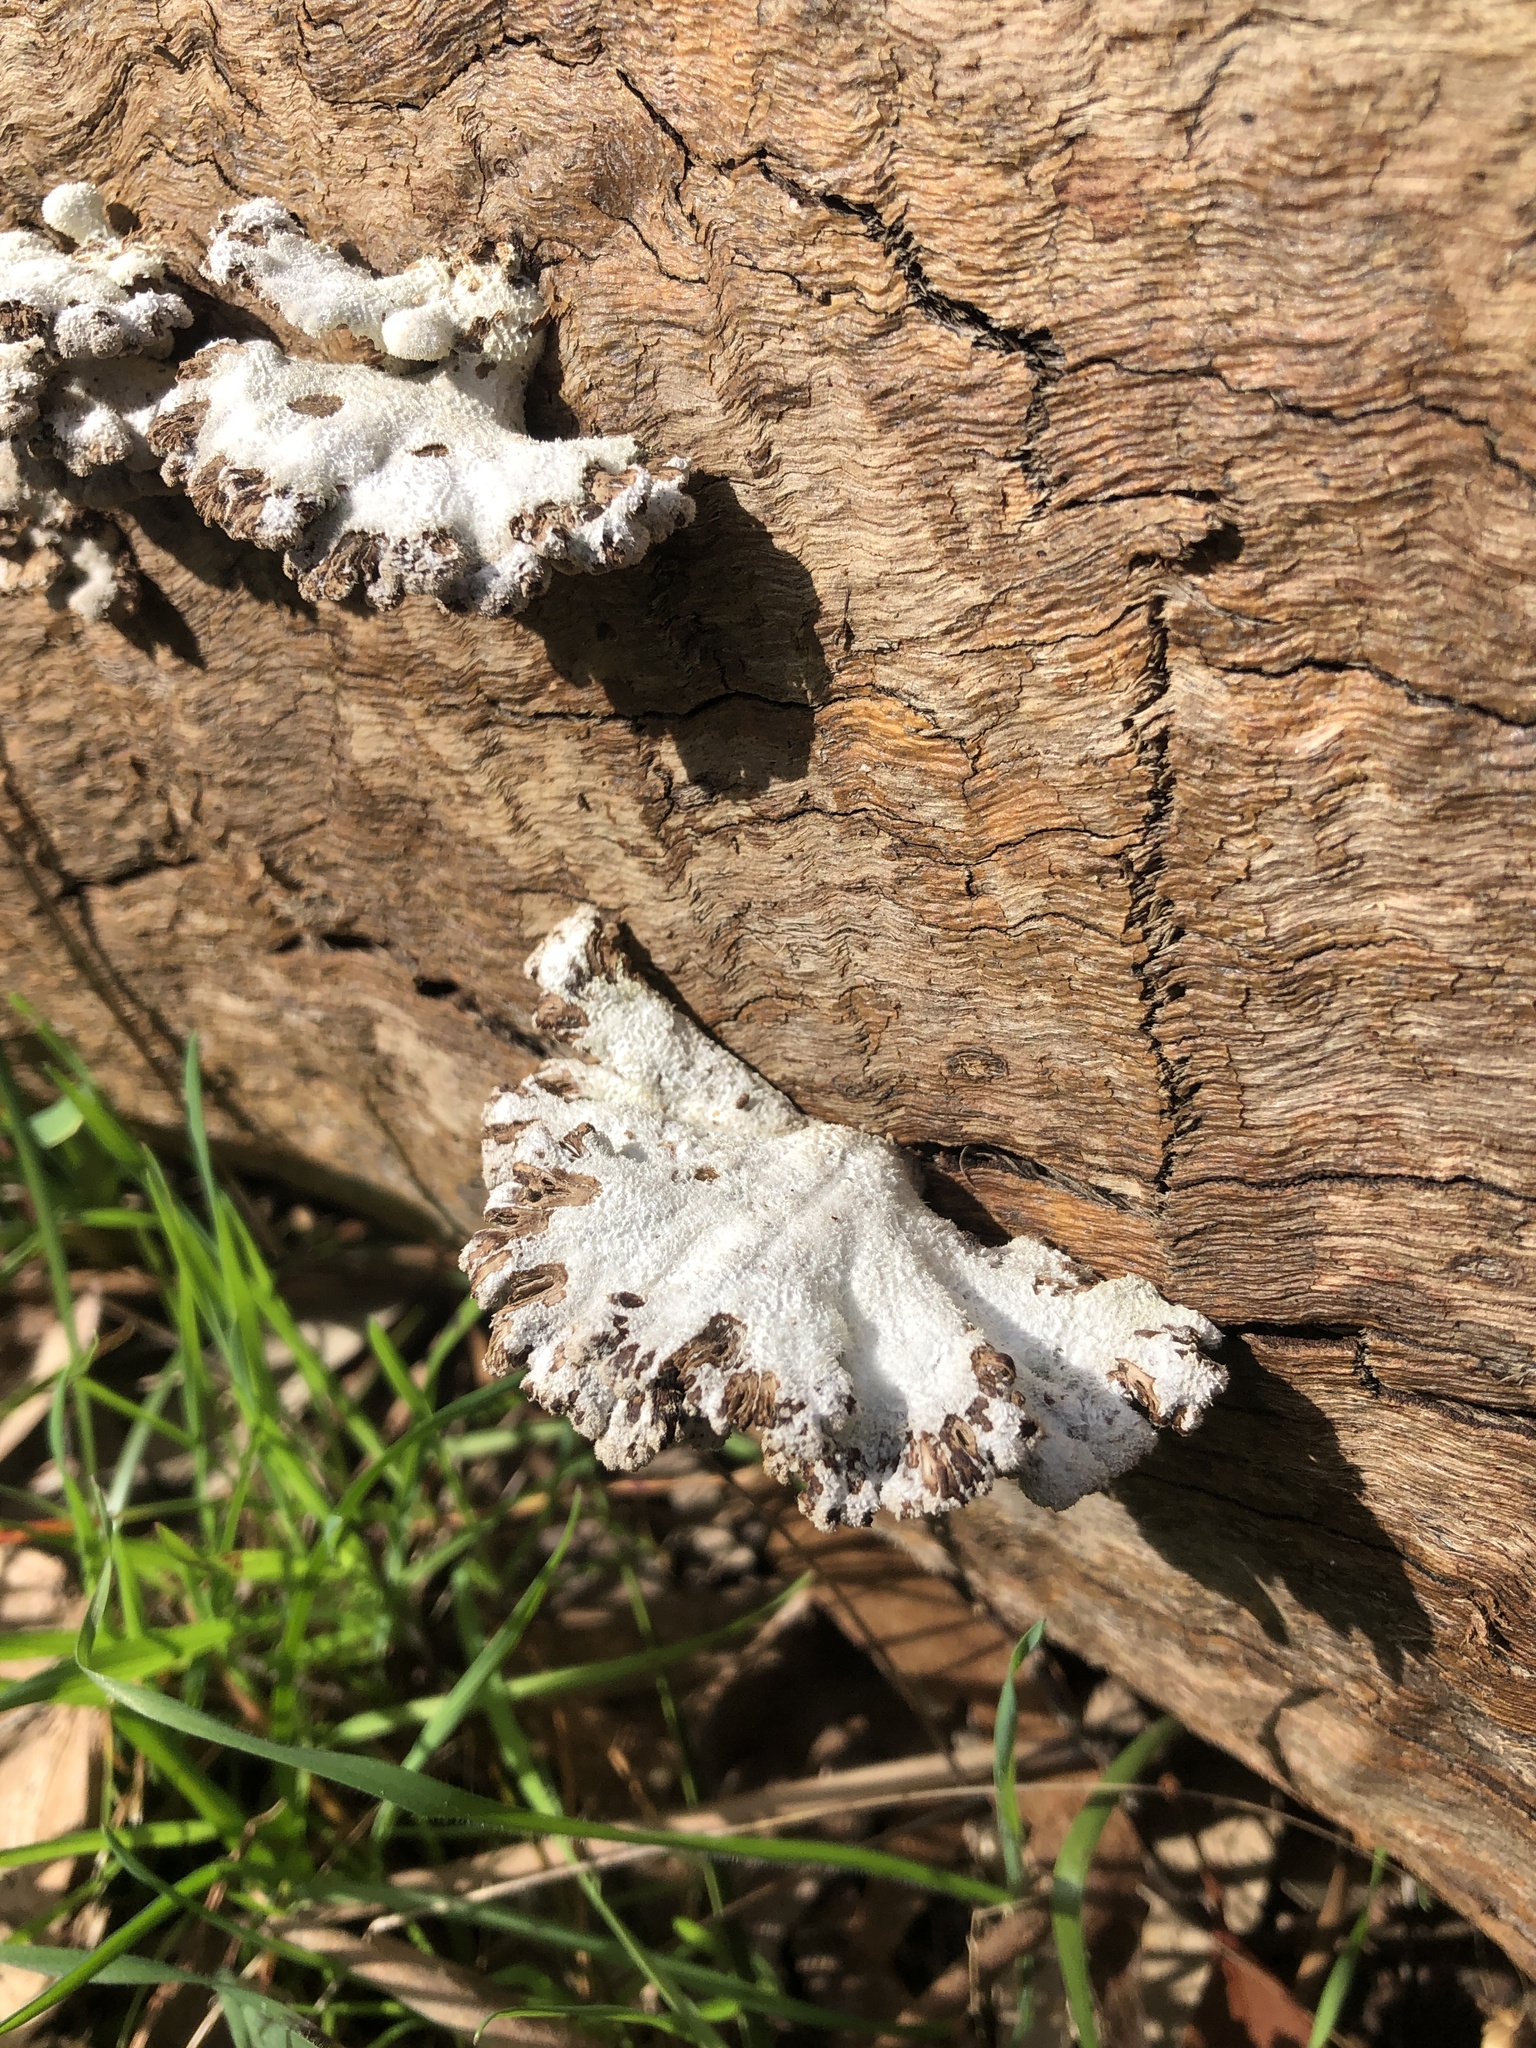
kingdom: Fungi
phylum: Basidiomycota
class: Agaricomycetes
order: Agaricales
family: Schizophyllaceae
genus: Schizophyllum
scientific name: Schizophyllum commune
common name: Common porecrust
